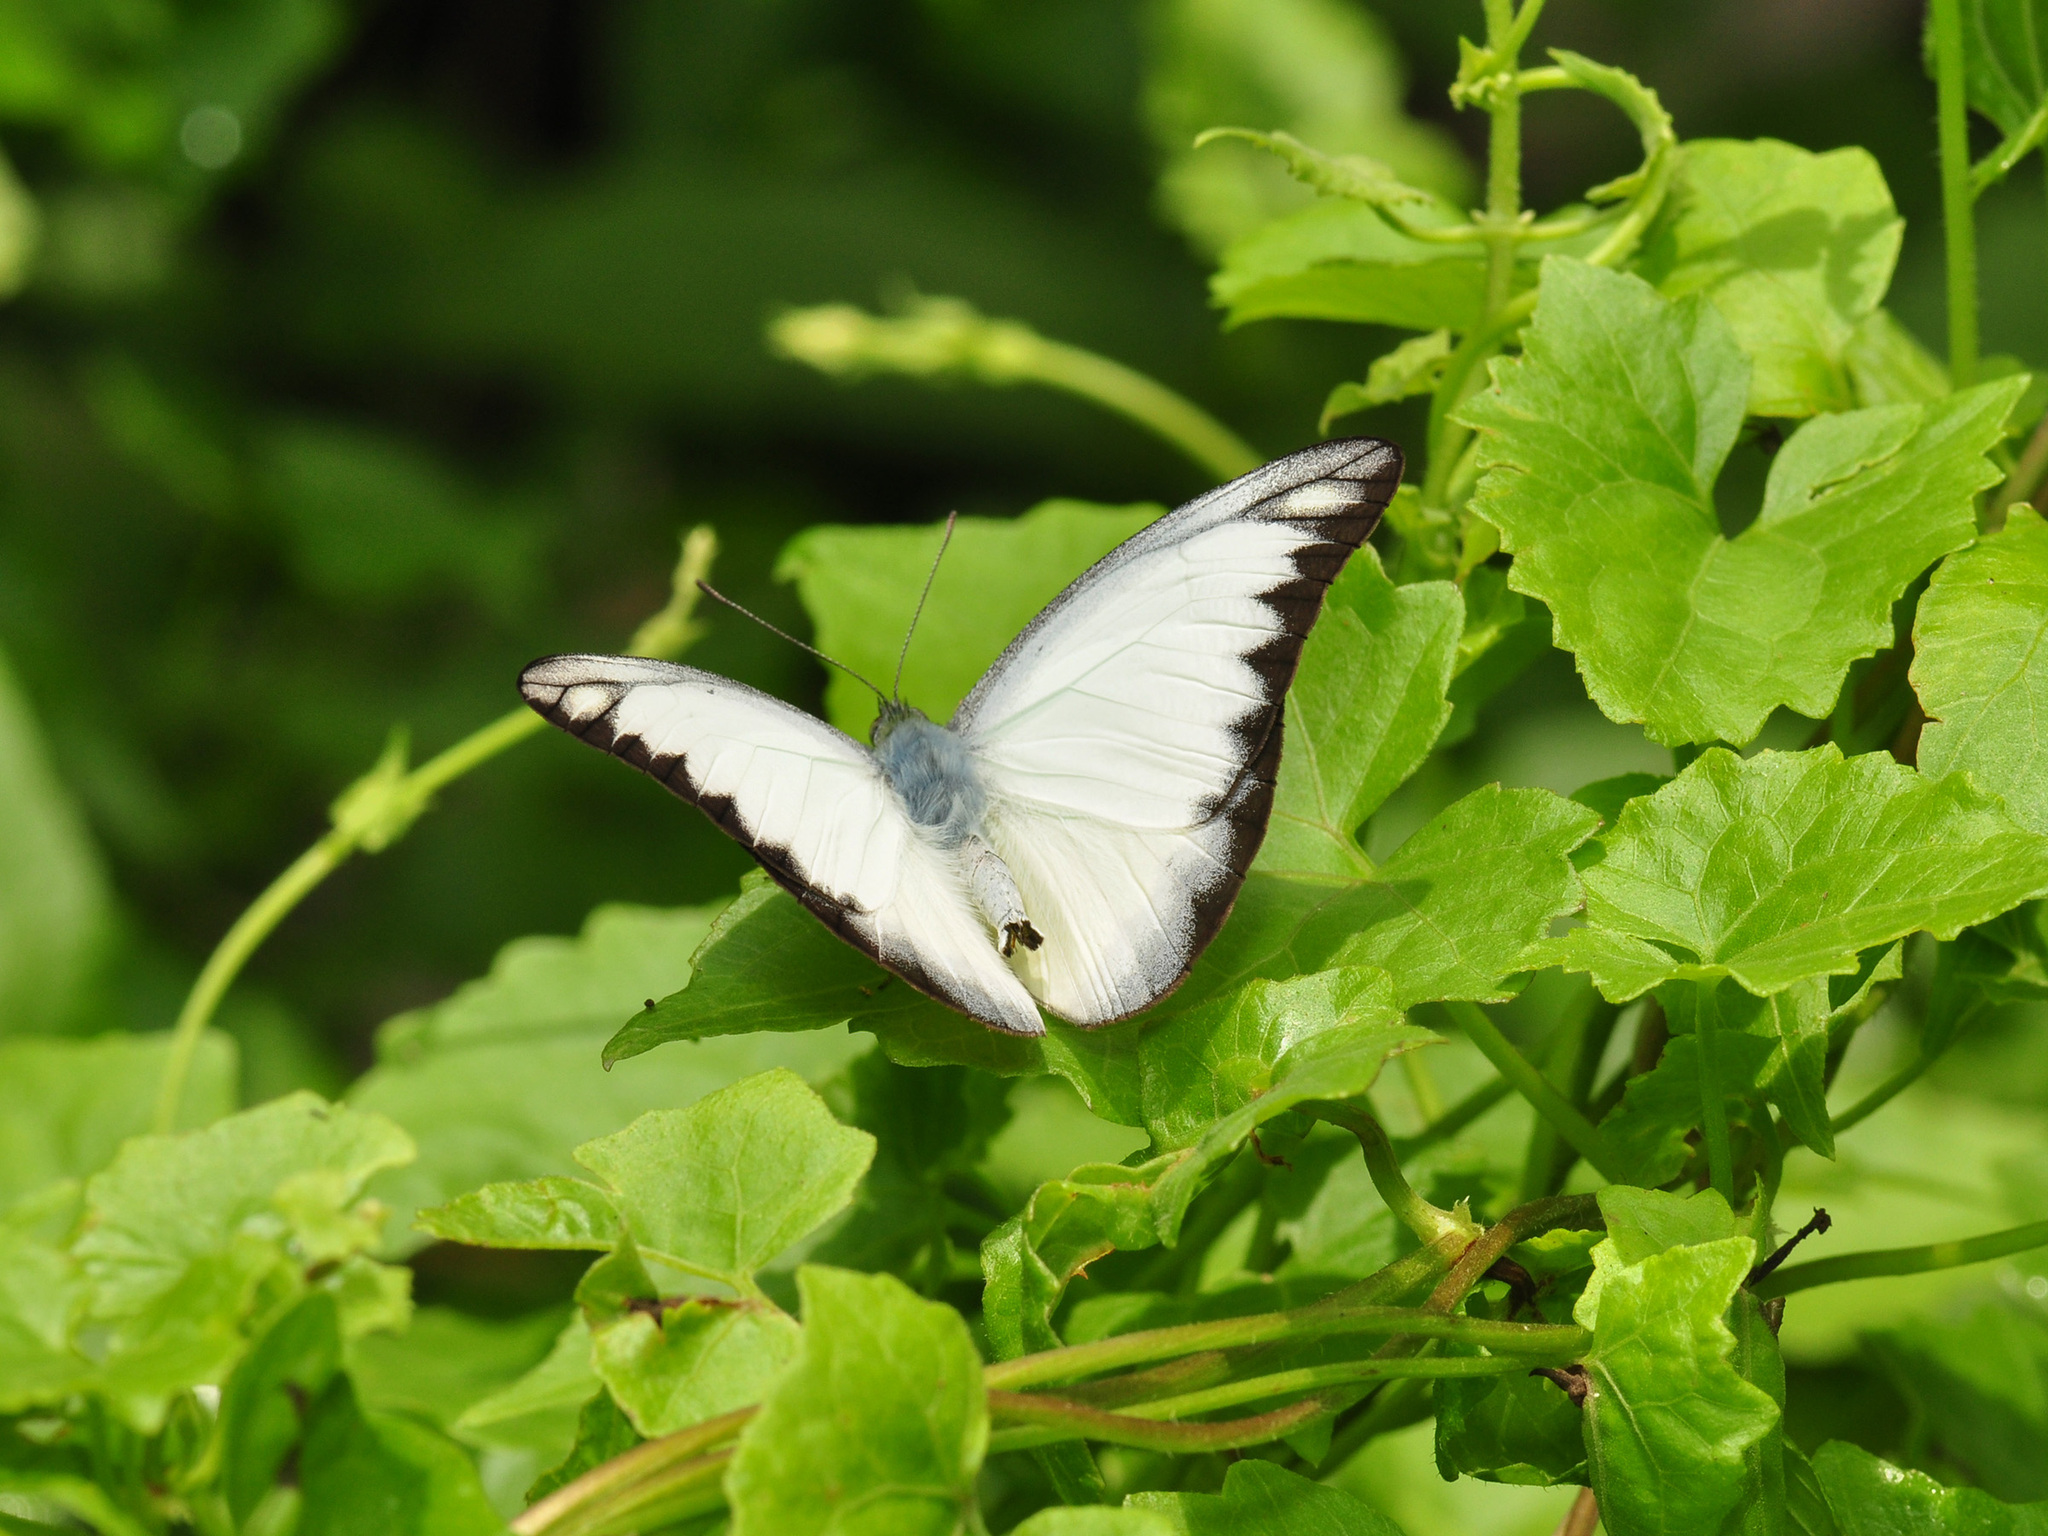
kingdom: Animalia
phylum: Arthropoda
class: Insecta
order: Lepidoptera
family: Pieridae
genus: Appias
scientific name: Appias lyncida
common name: Chocolate albatross
